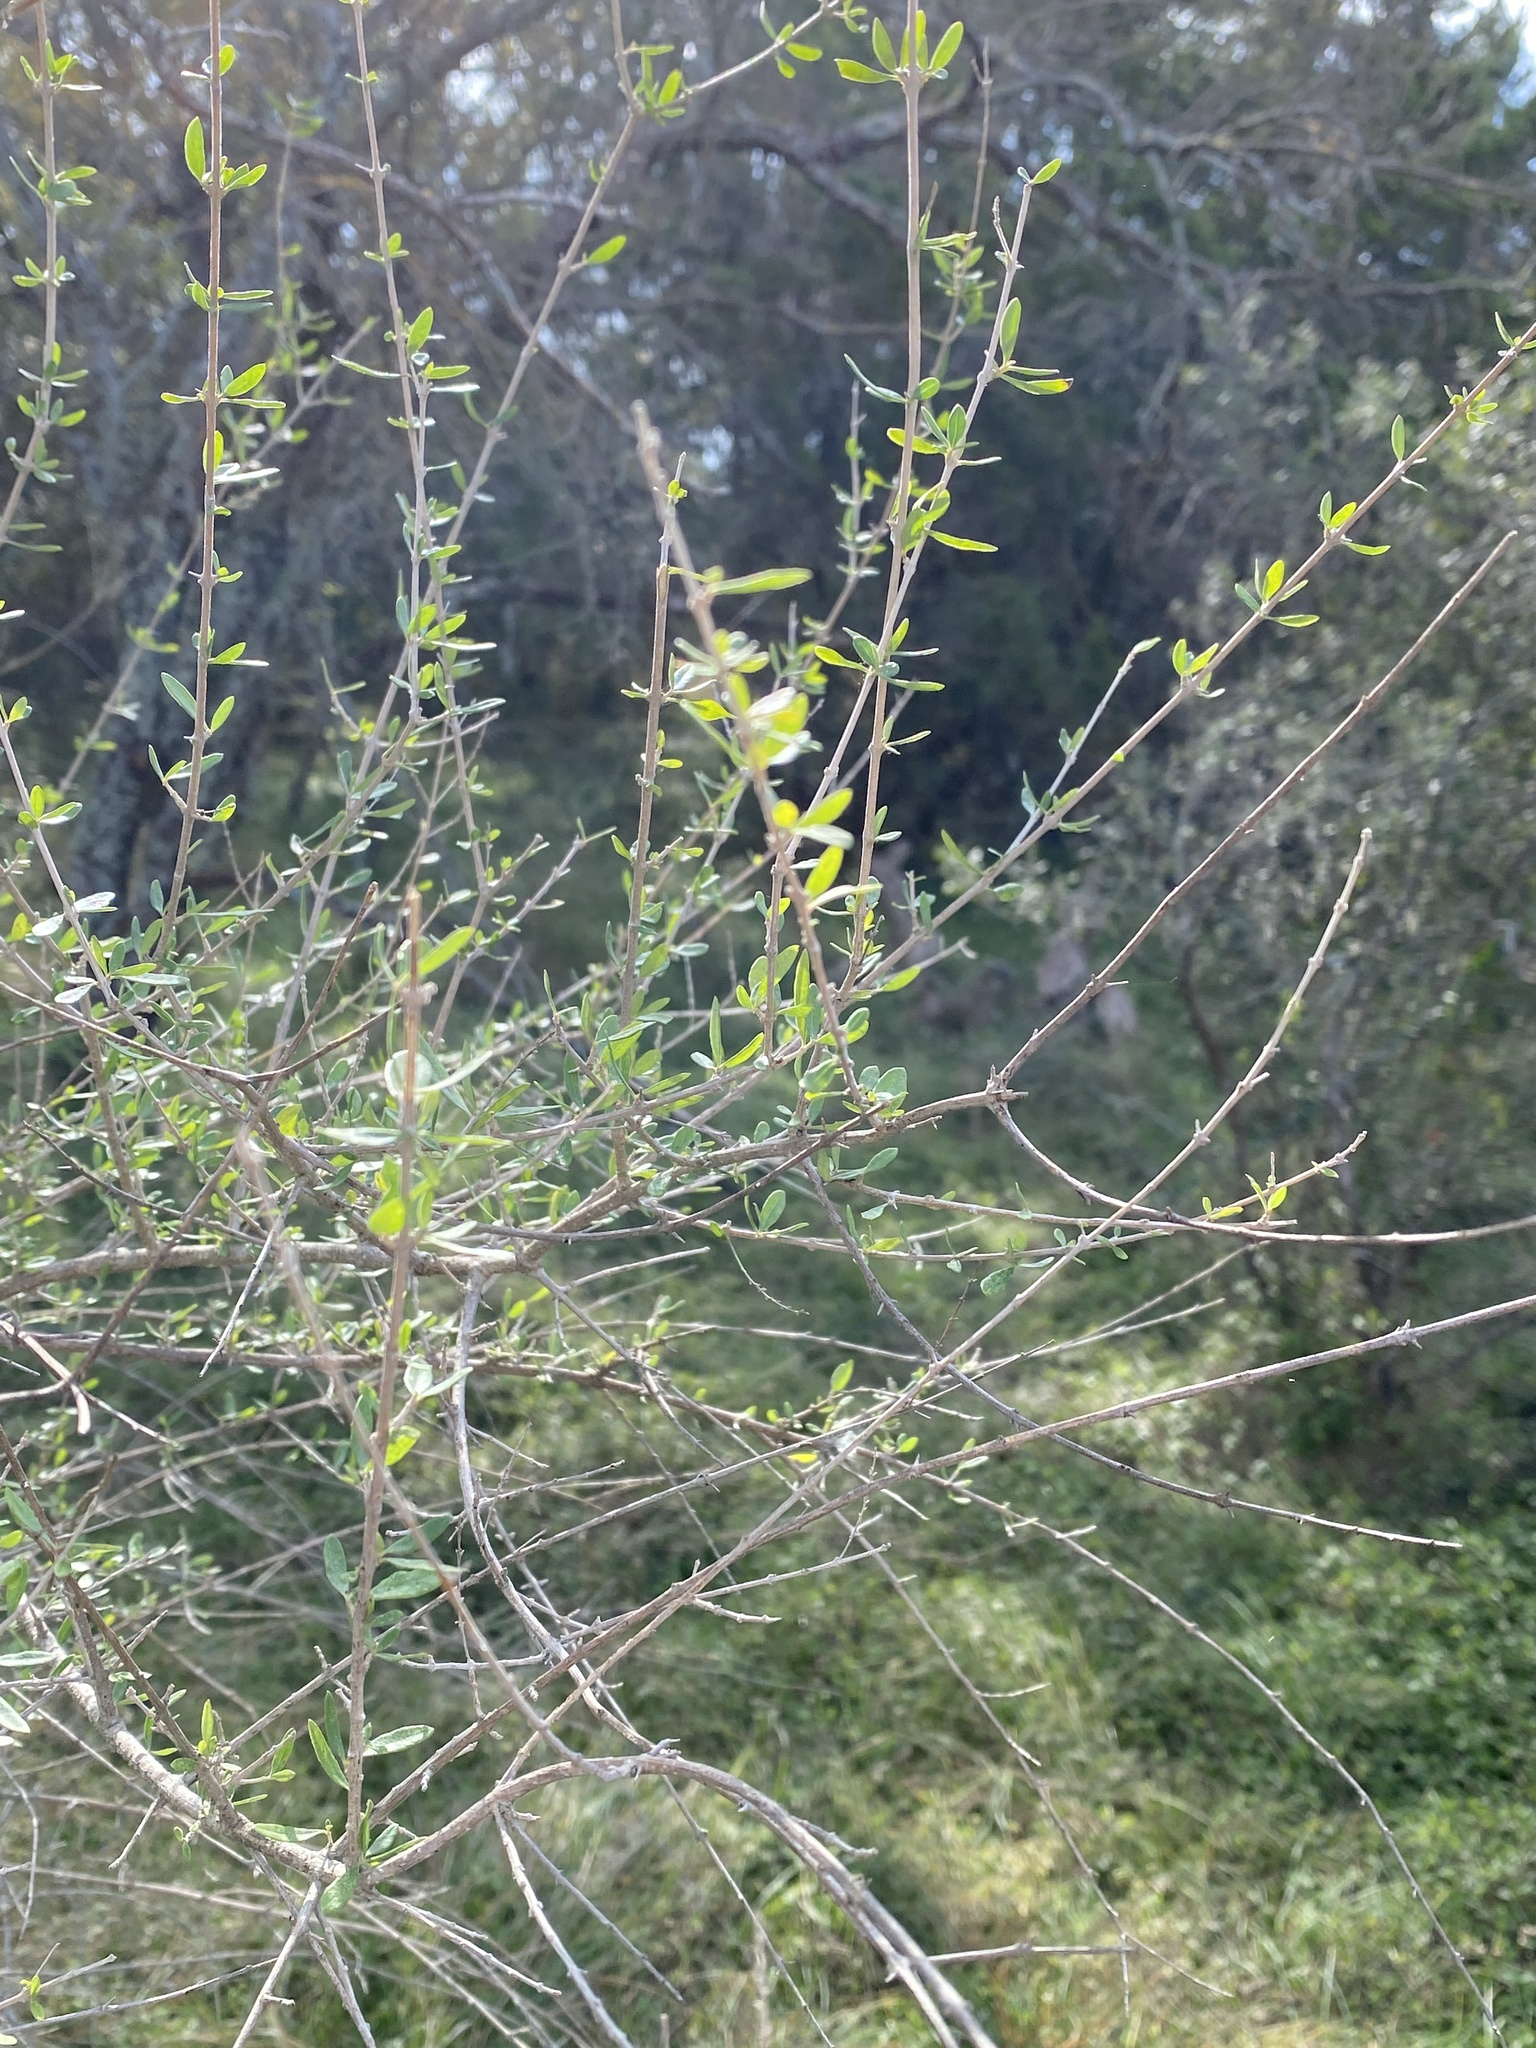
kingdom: Plantae
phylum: Tracheophyta
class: Magnoliopsida
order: Lamiales
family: Verbenaceae
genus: Aloysia
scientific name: Aloysia gratissima
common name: Common bee-brush
